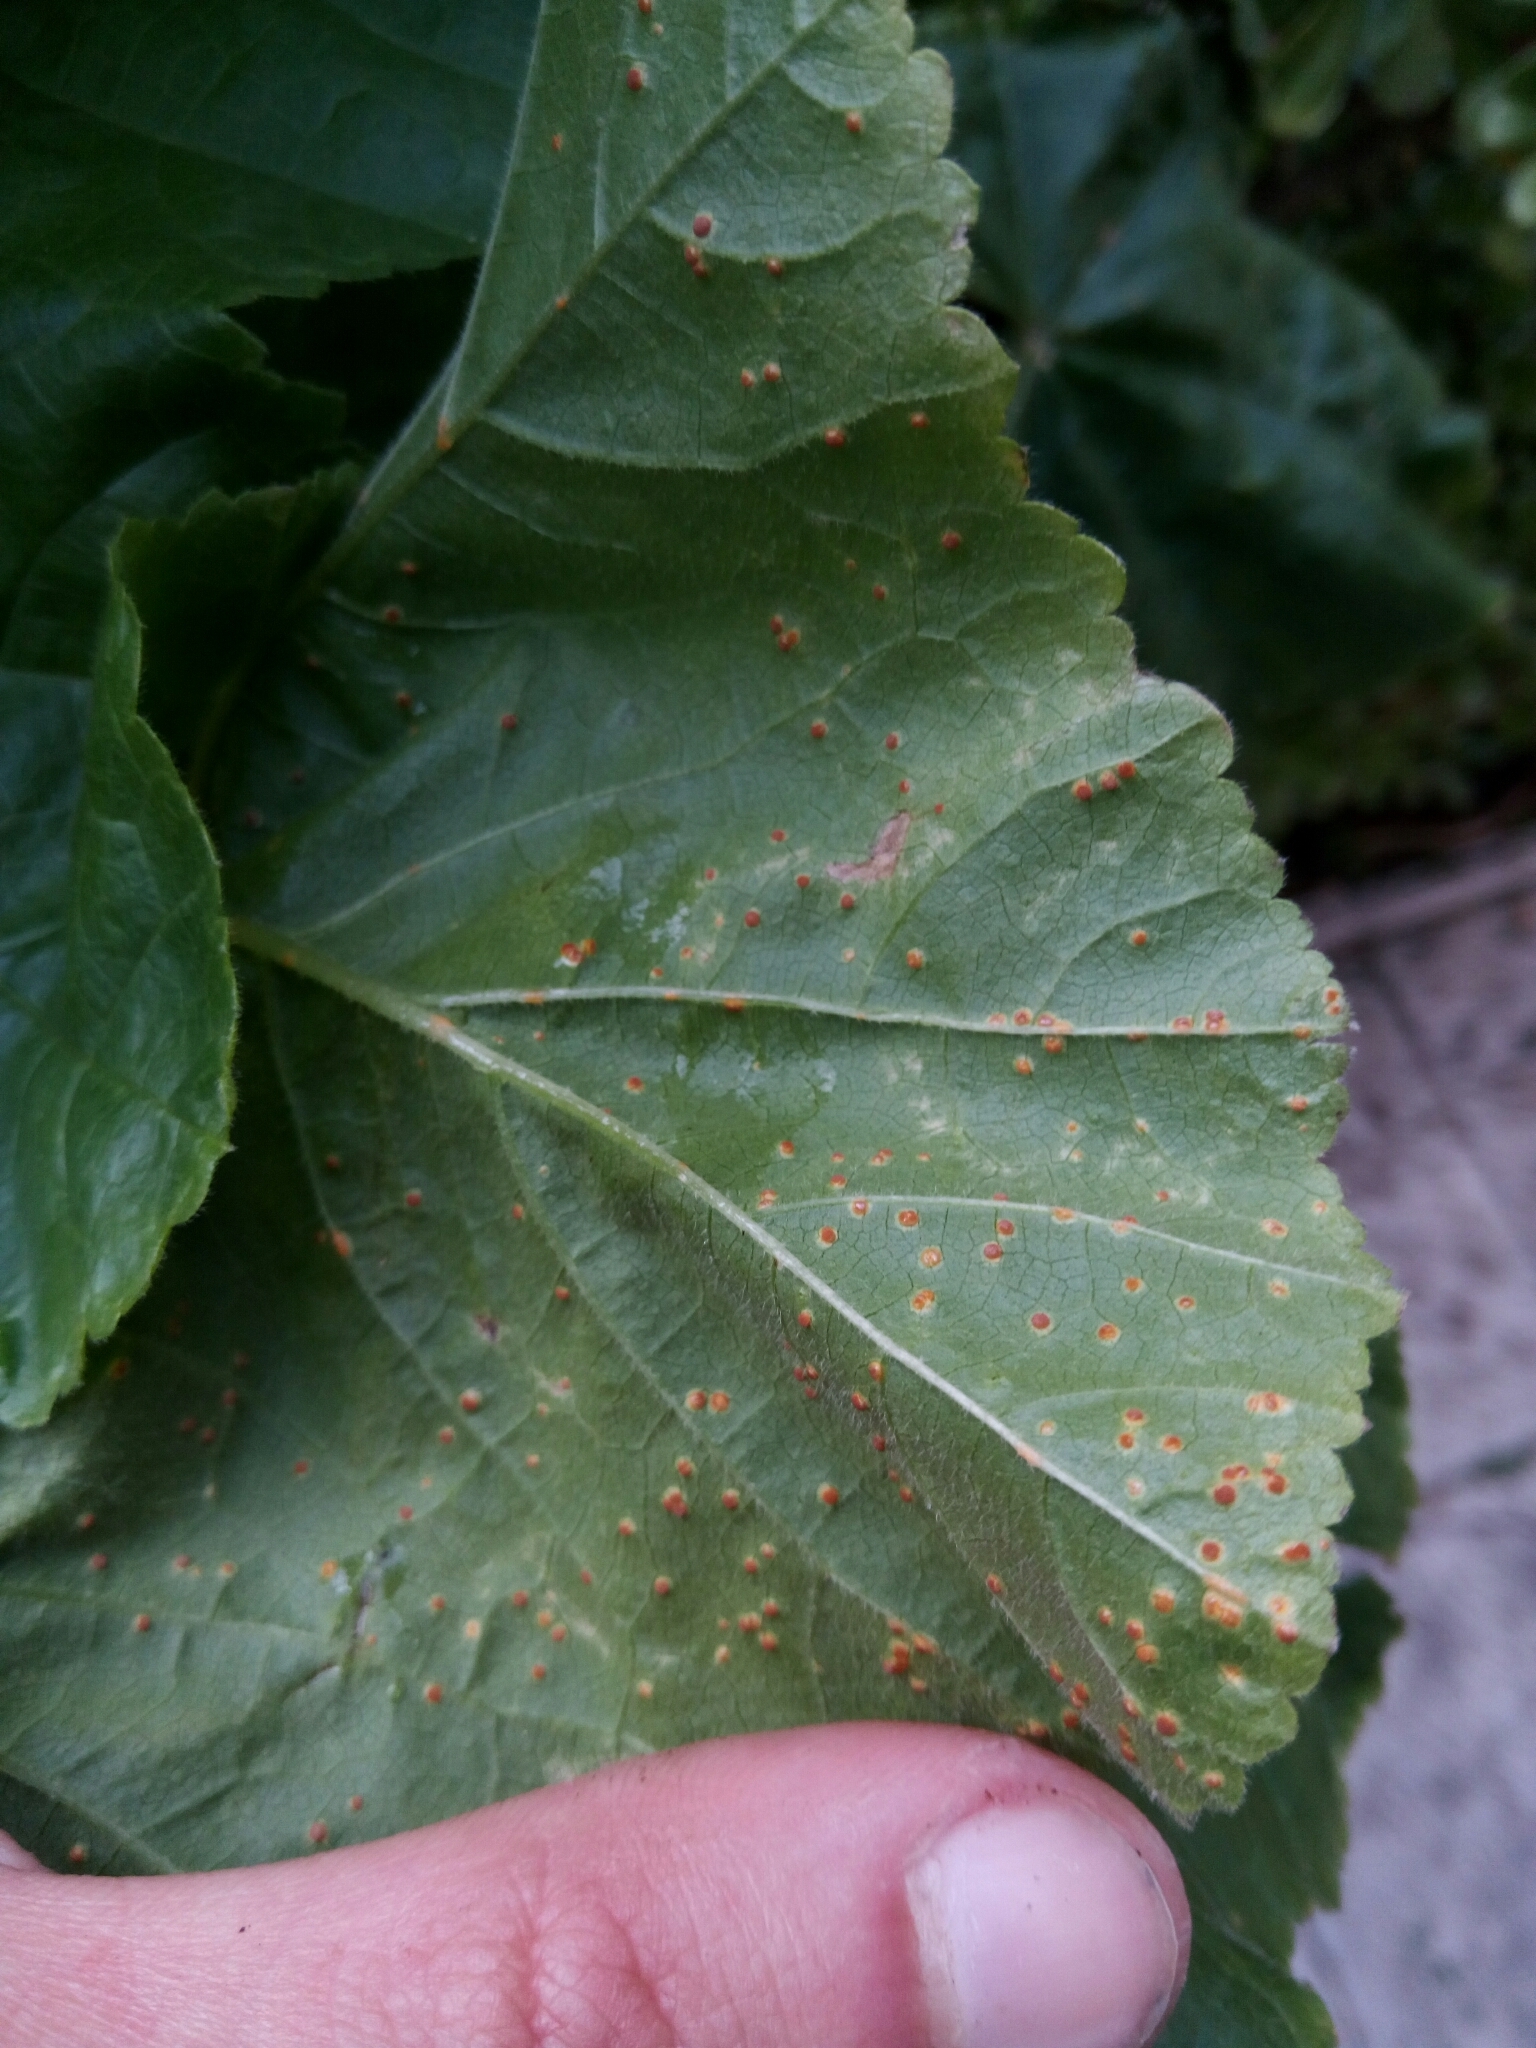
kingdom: Fungi
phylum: Basidiomycota
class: Pucciniomycetes
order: Pucciniales
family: Pucciniaceae
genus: Puccinia
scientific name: Puccinia malvacearum
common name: Hollyhock rust
